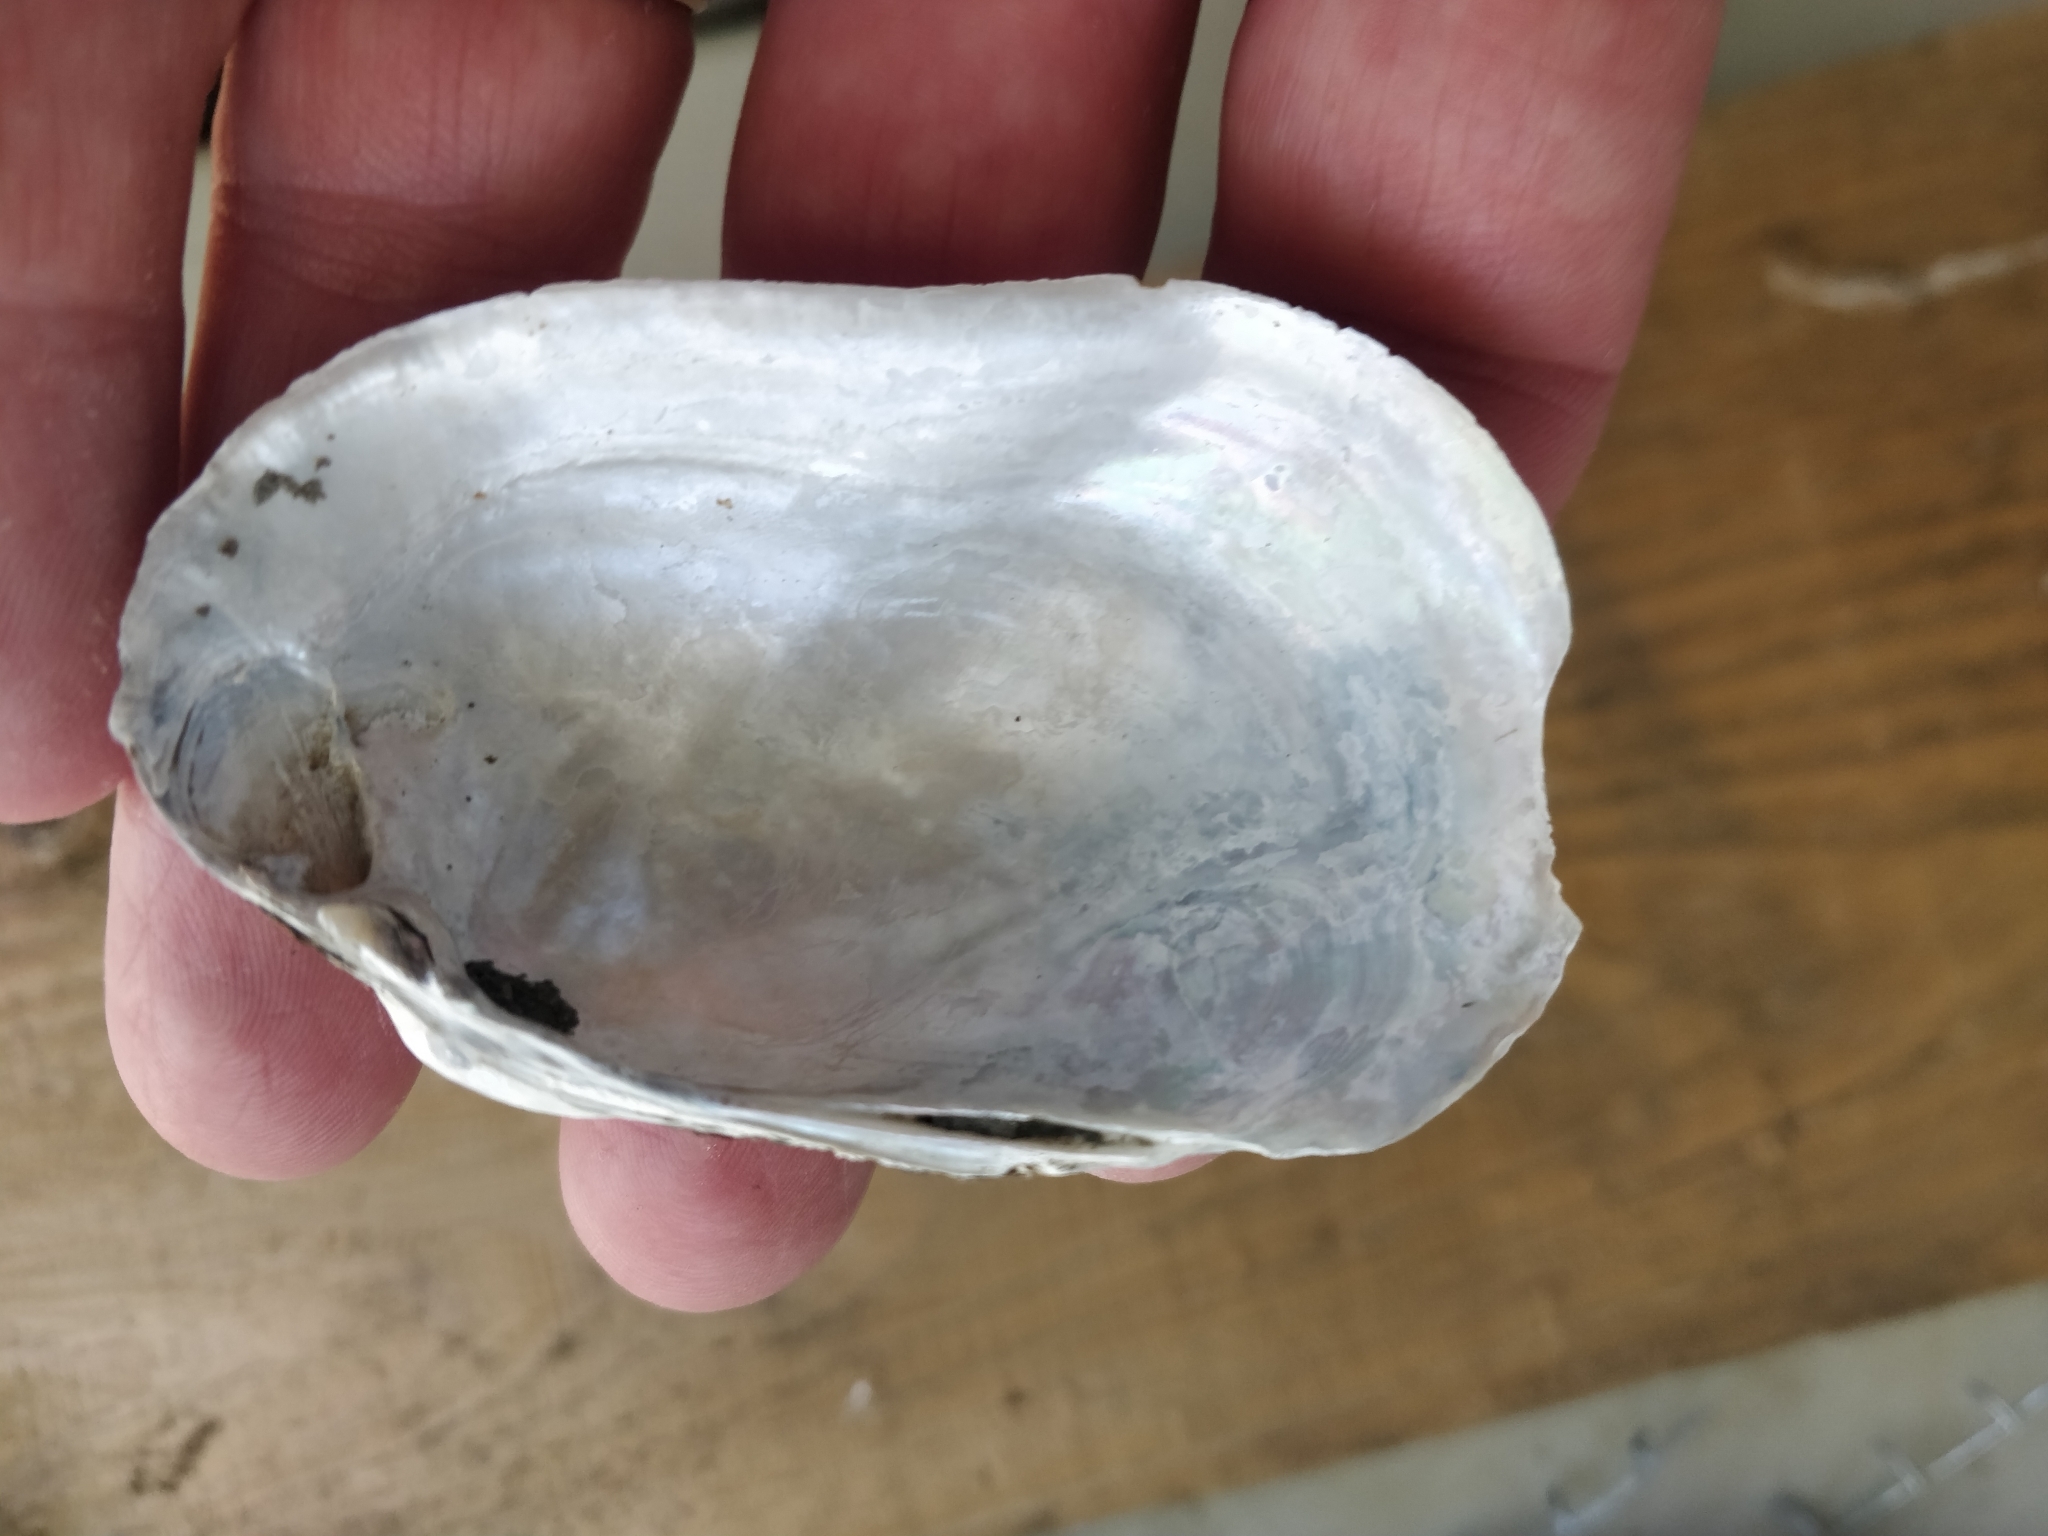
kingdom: Animalia
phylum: Mollusca
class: Bivalvia
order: Unionida
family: Unionidae
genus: Lampsilis
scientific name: Lampsilis siliquoidea
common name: Fatmucket
